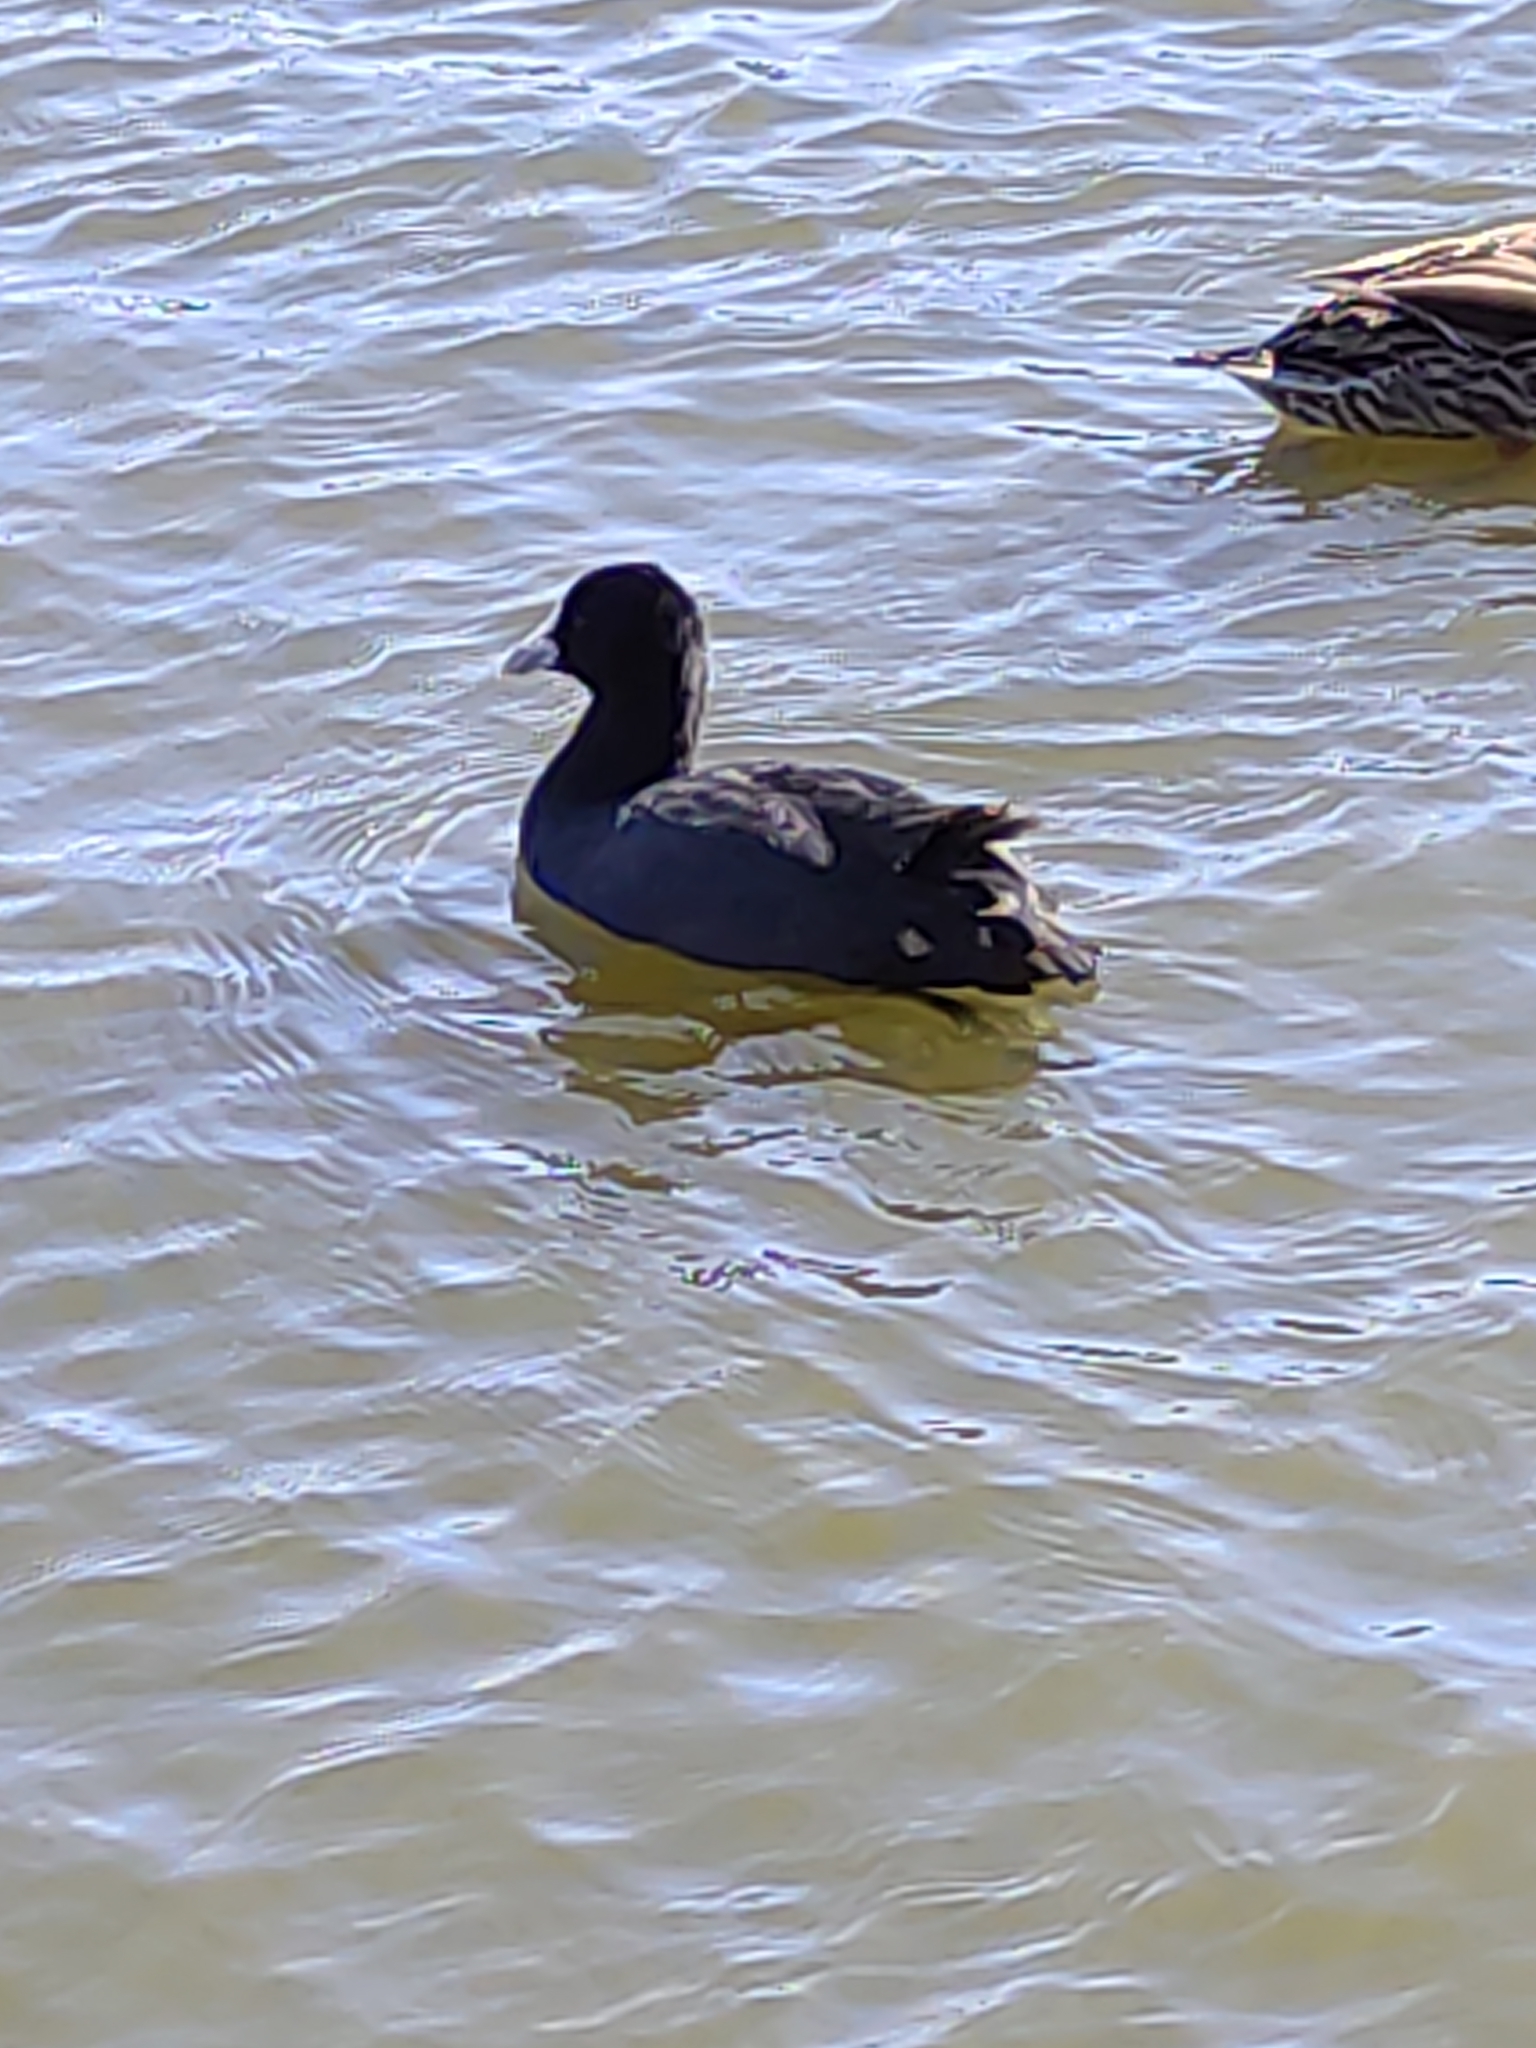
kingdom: Animalia
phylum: Chordata
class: Aves
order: Gruiformes
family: Rallidae
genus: Fulica
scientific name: Fulica atra
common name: Eurasian coot
